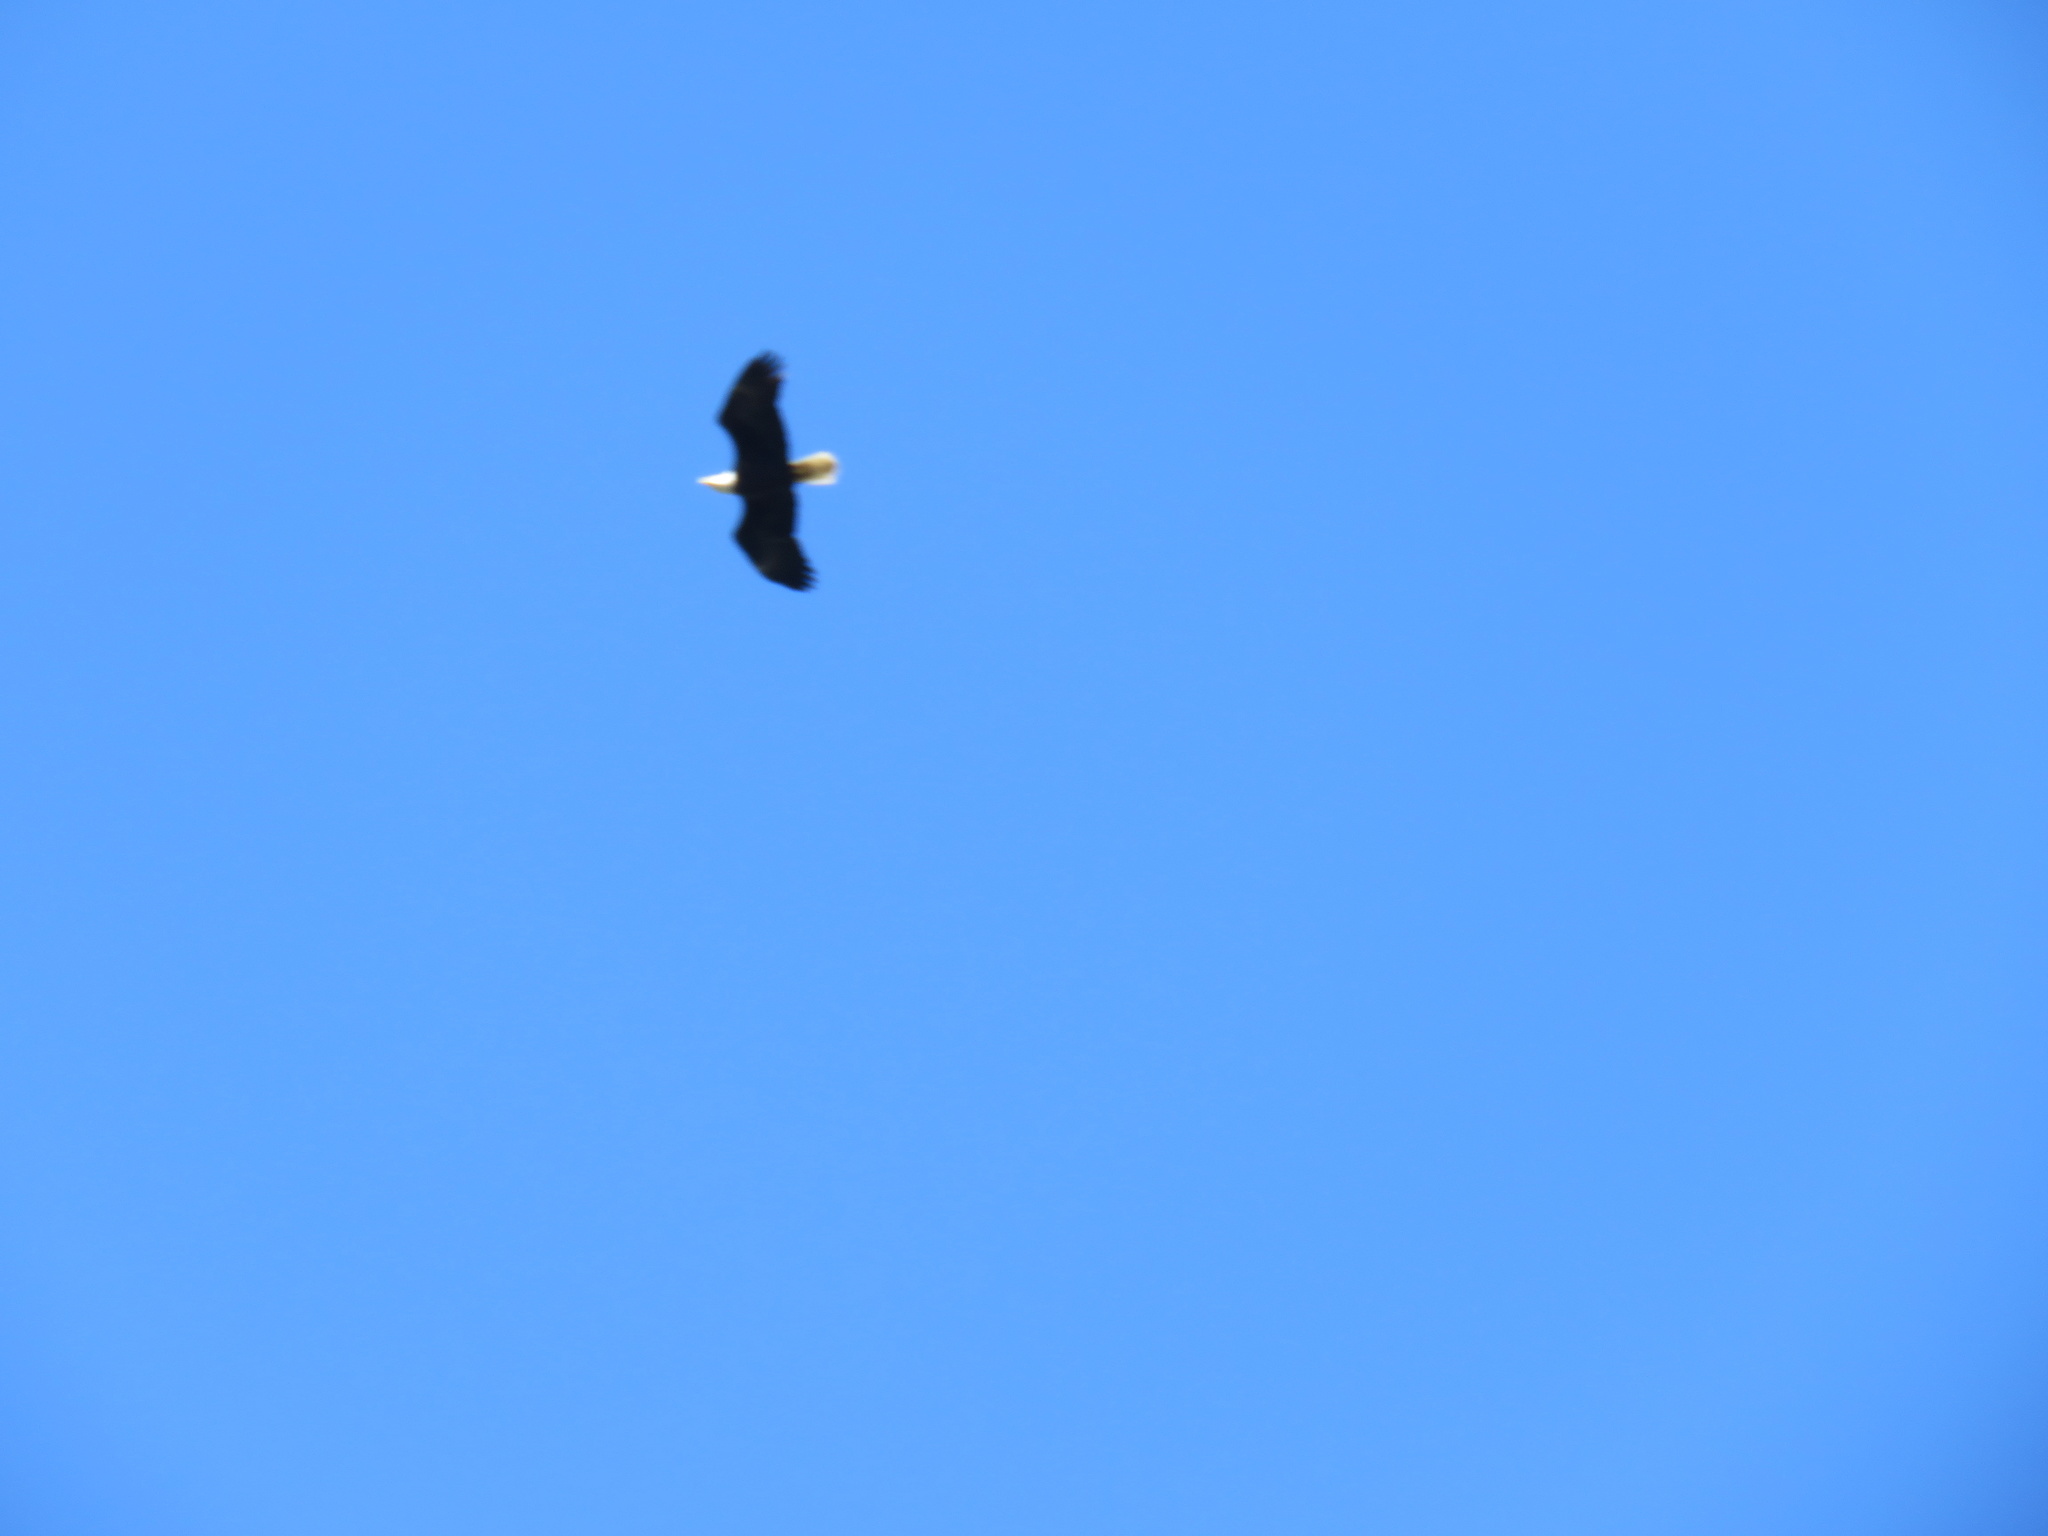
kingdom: Animalia
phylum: Chordata
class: Aves
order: Accipitriformes
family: Accipitridae
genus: Haliaeetus
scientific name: Haliaeetus leucocephalus
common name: Bald eagle
